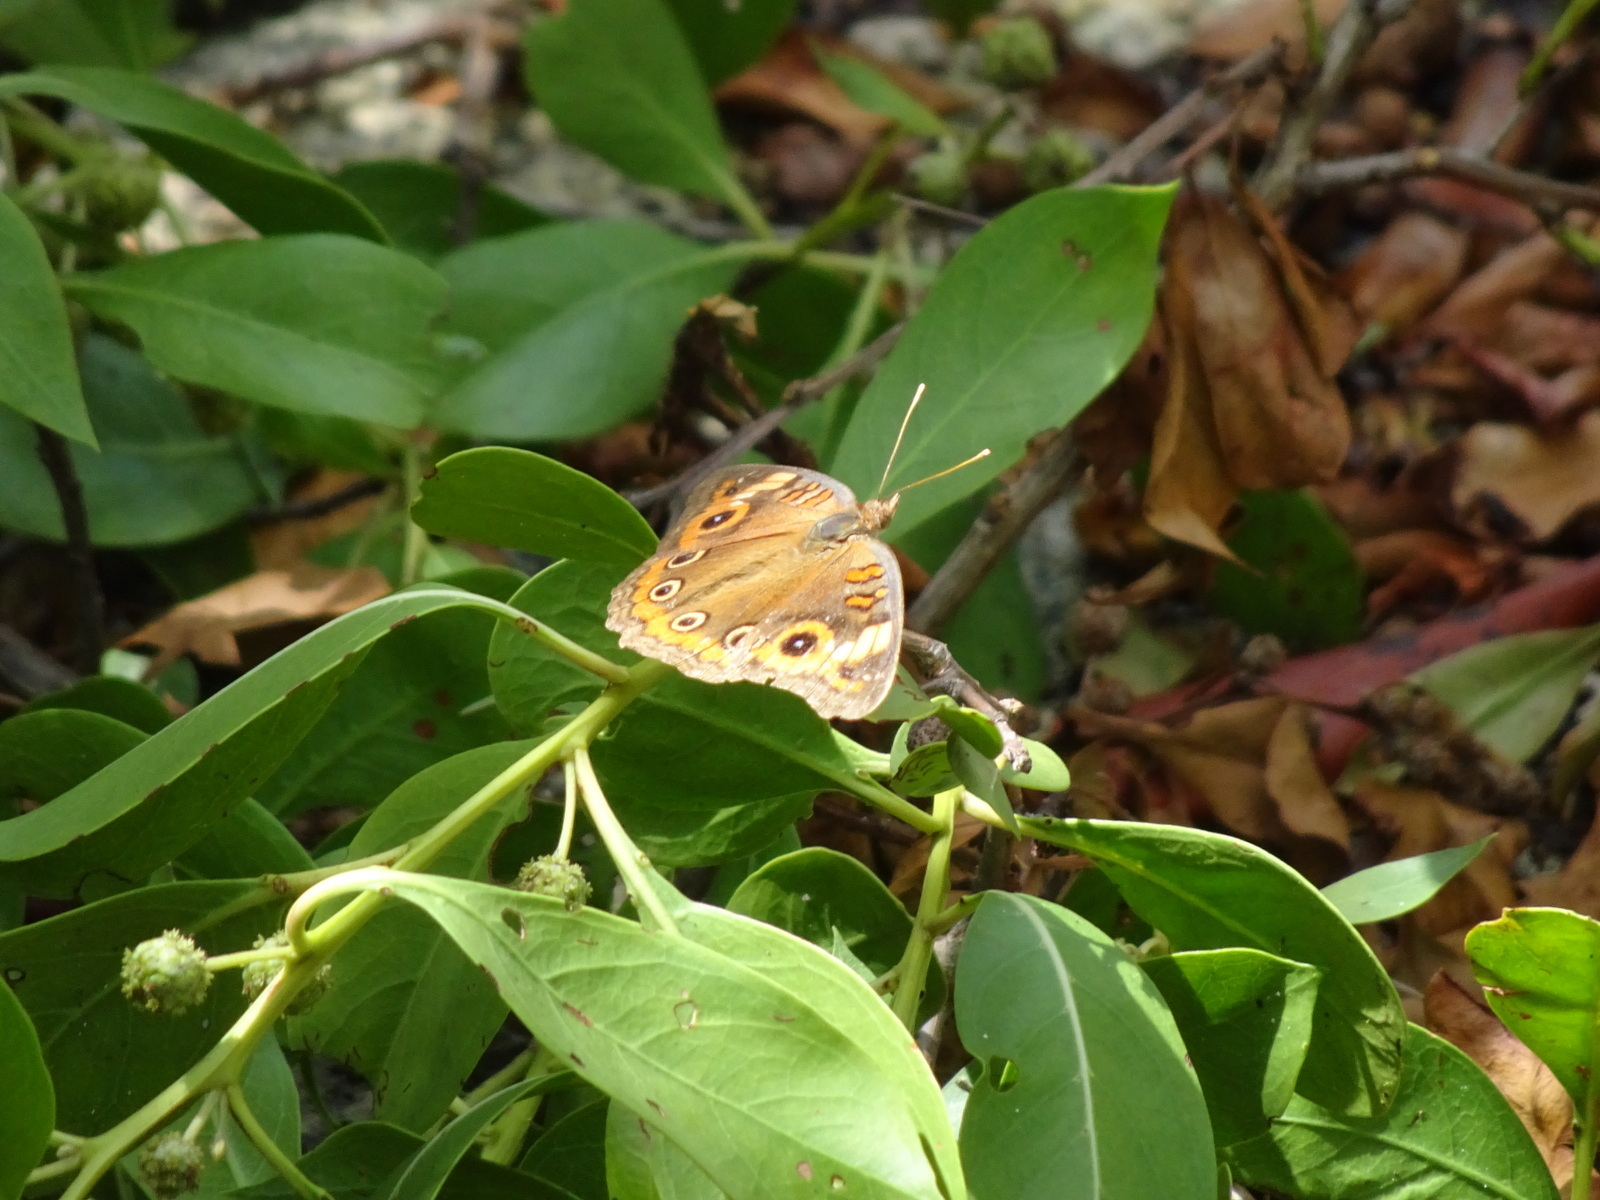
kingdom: Animalia
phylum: Arthropoda
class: Insecta
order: Lepidoptera
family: Nymphalidae
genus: Junonia
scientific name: Junonia neildi
